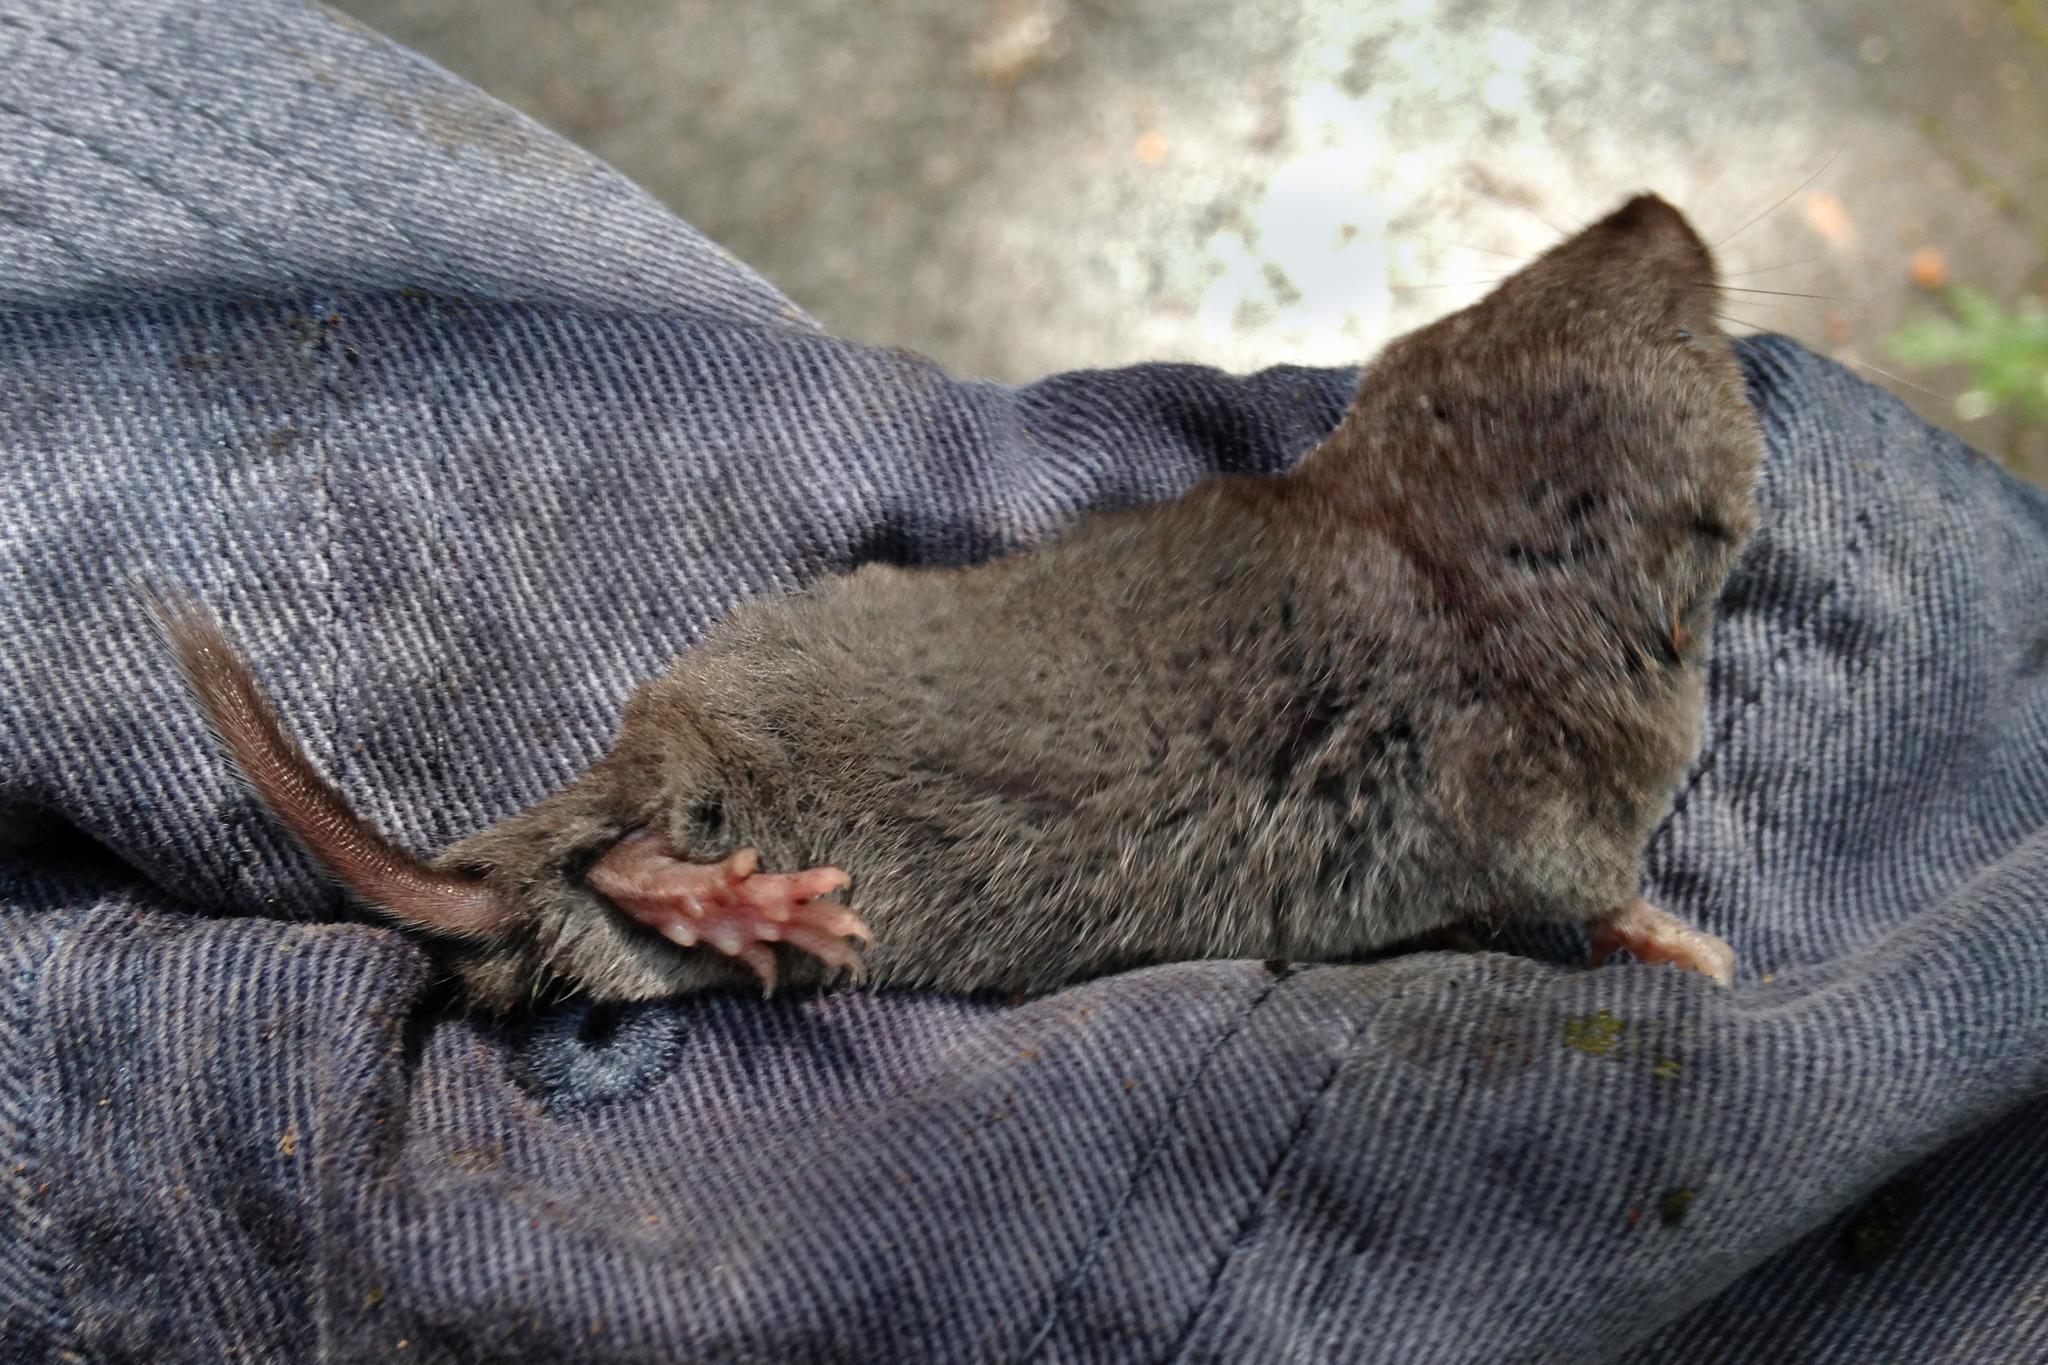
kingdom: Animalia
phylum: Chordata
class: Mammalia
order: Soricomorpha
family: Soricidae
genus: Blarina
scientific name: Blarina brevicauda
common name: Northern short-tailed shrew
